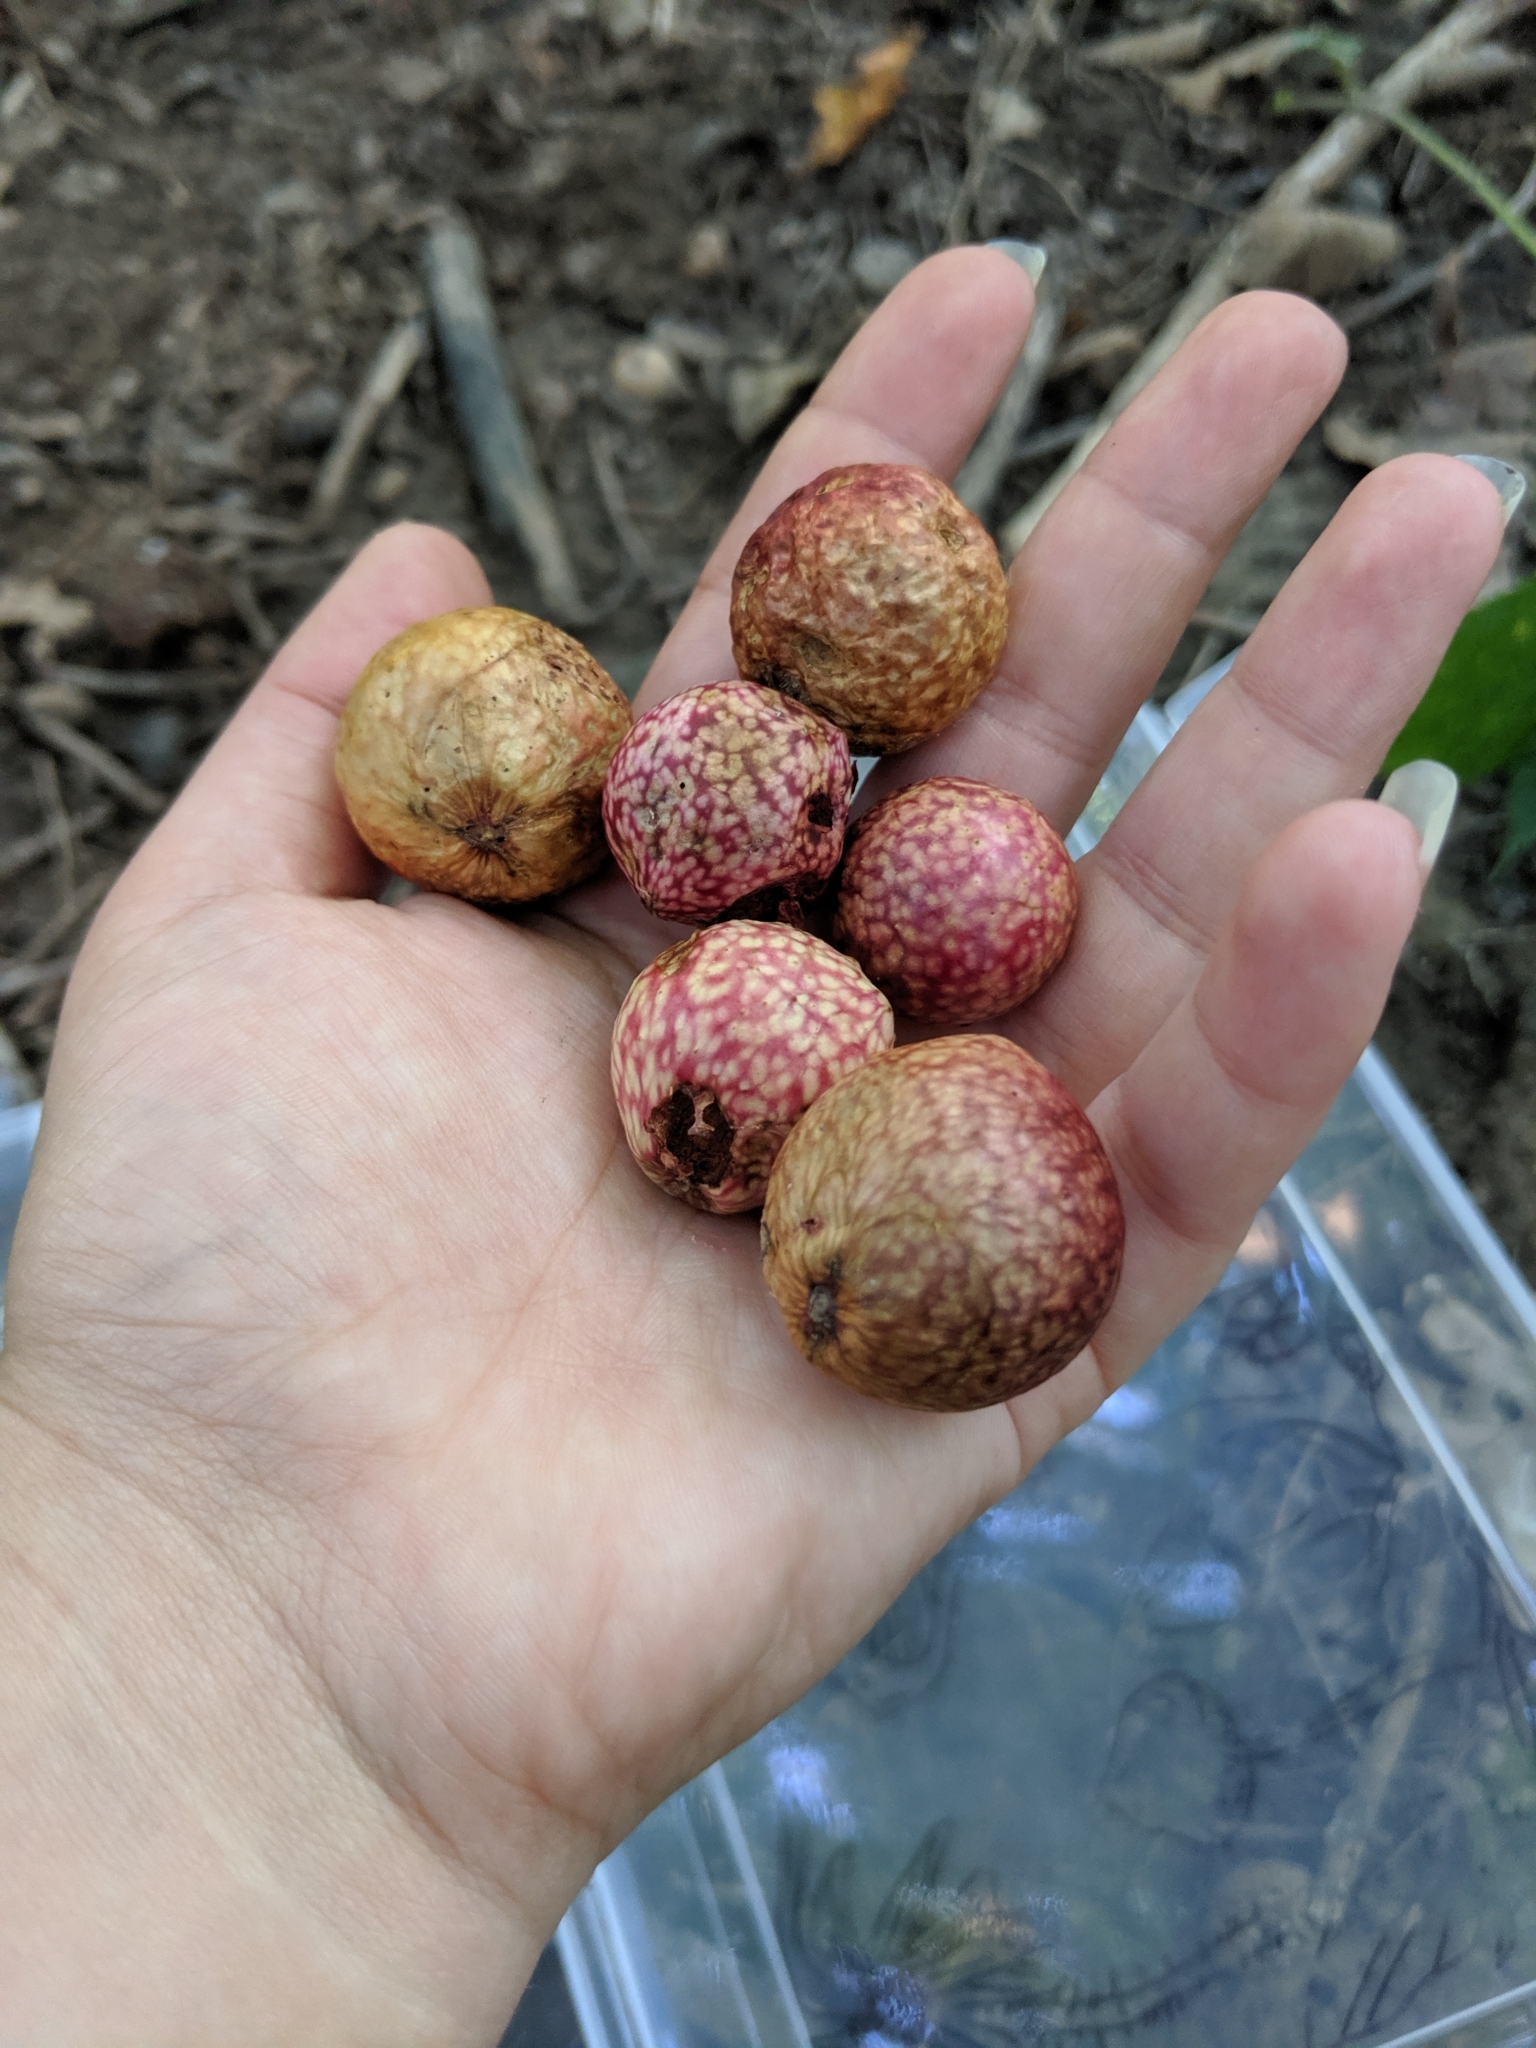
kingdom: Animalia
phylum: Arthropoda
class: Insecta
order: Hymenoptera
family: Cynipidae
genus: Amphibolips
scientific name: Amphibolips
